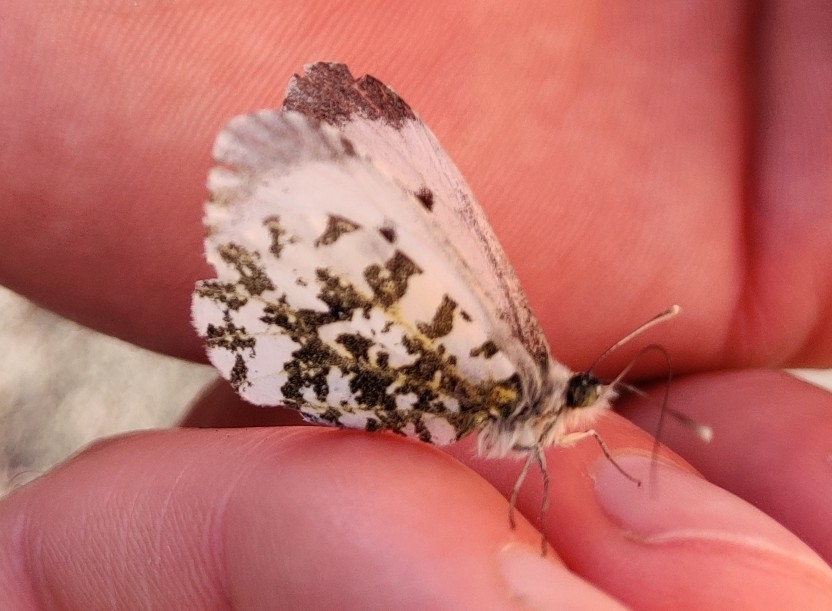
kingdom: Animalia
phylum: Arthropoda
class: Insecta
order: Lepidoptera
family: Pieridae
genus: Anthocharis
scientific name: Anthocharis cardamines
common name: Orange-tip
